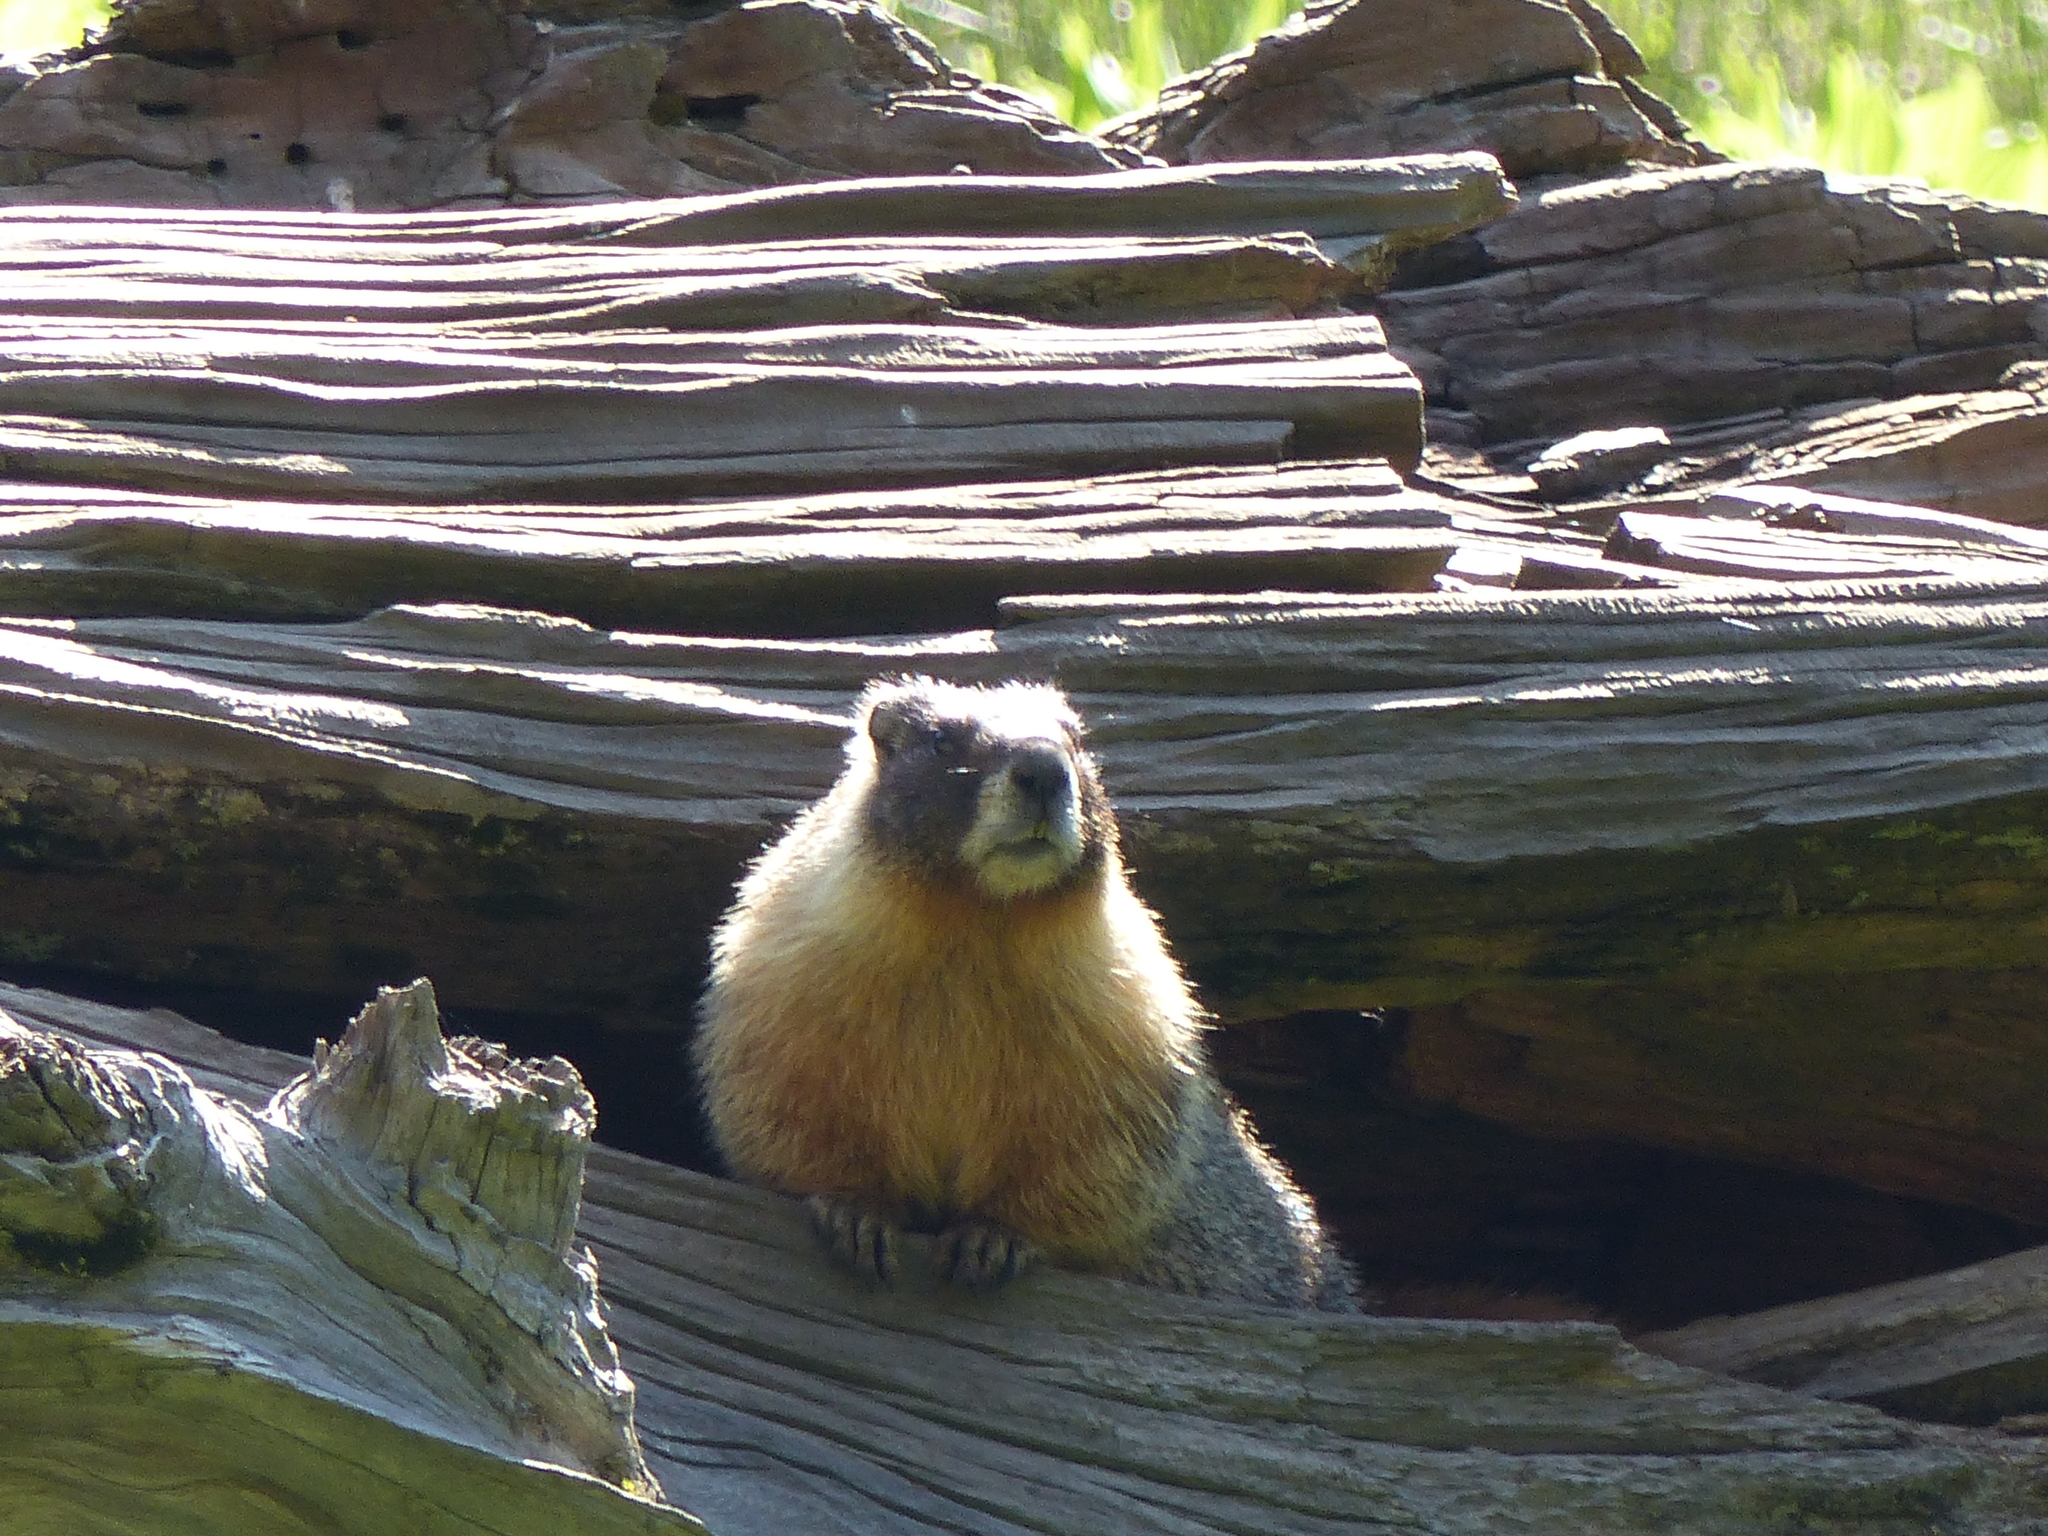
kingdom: Animalia
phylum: Chordata
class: Mammalia
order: Rodentia
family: Sciuridae
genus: Marmota
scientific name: Marmota flaviventris
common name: Yellow-bellied marmot
